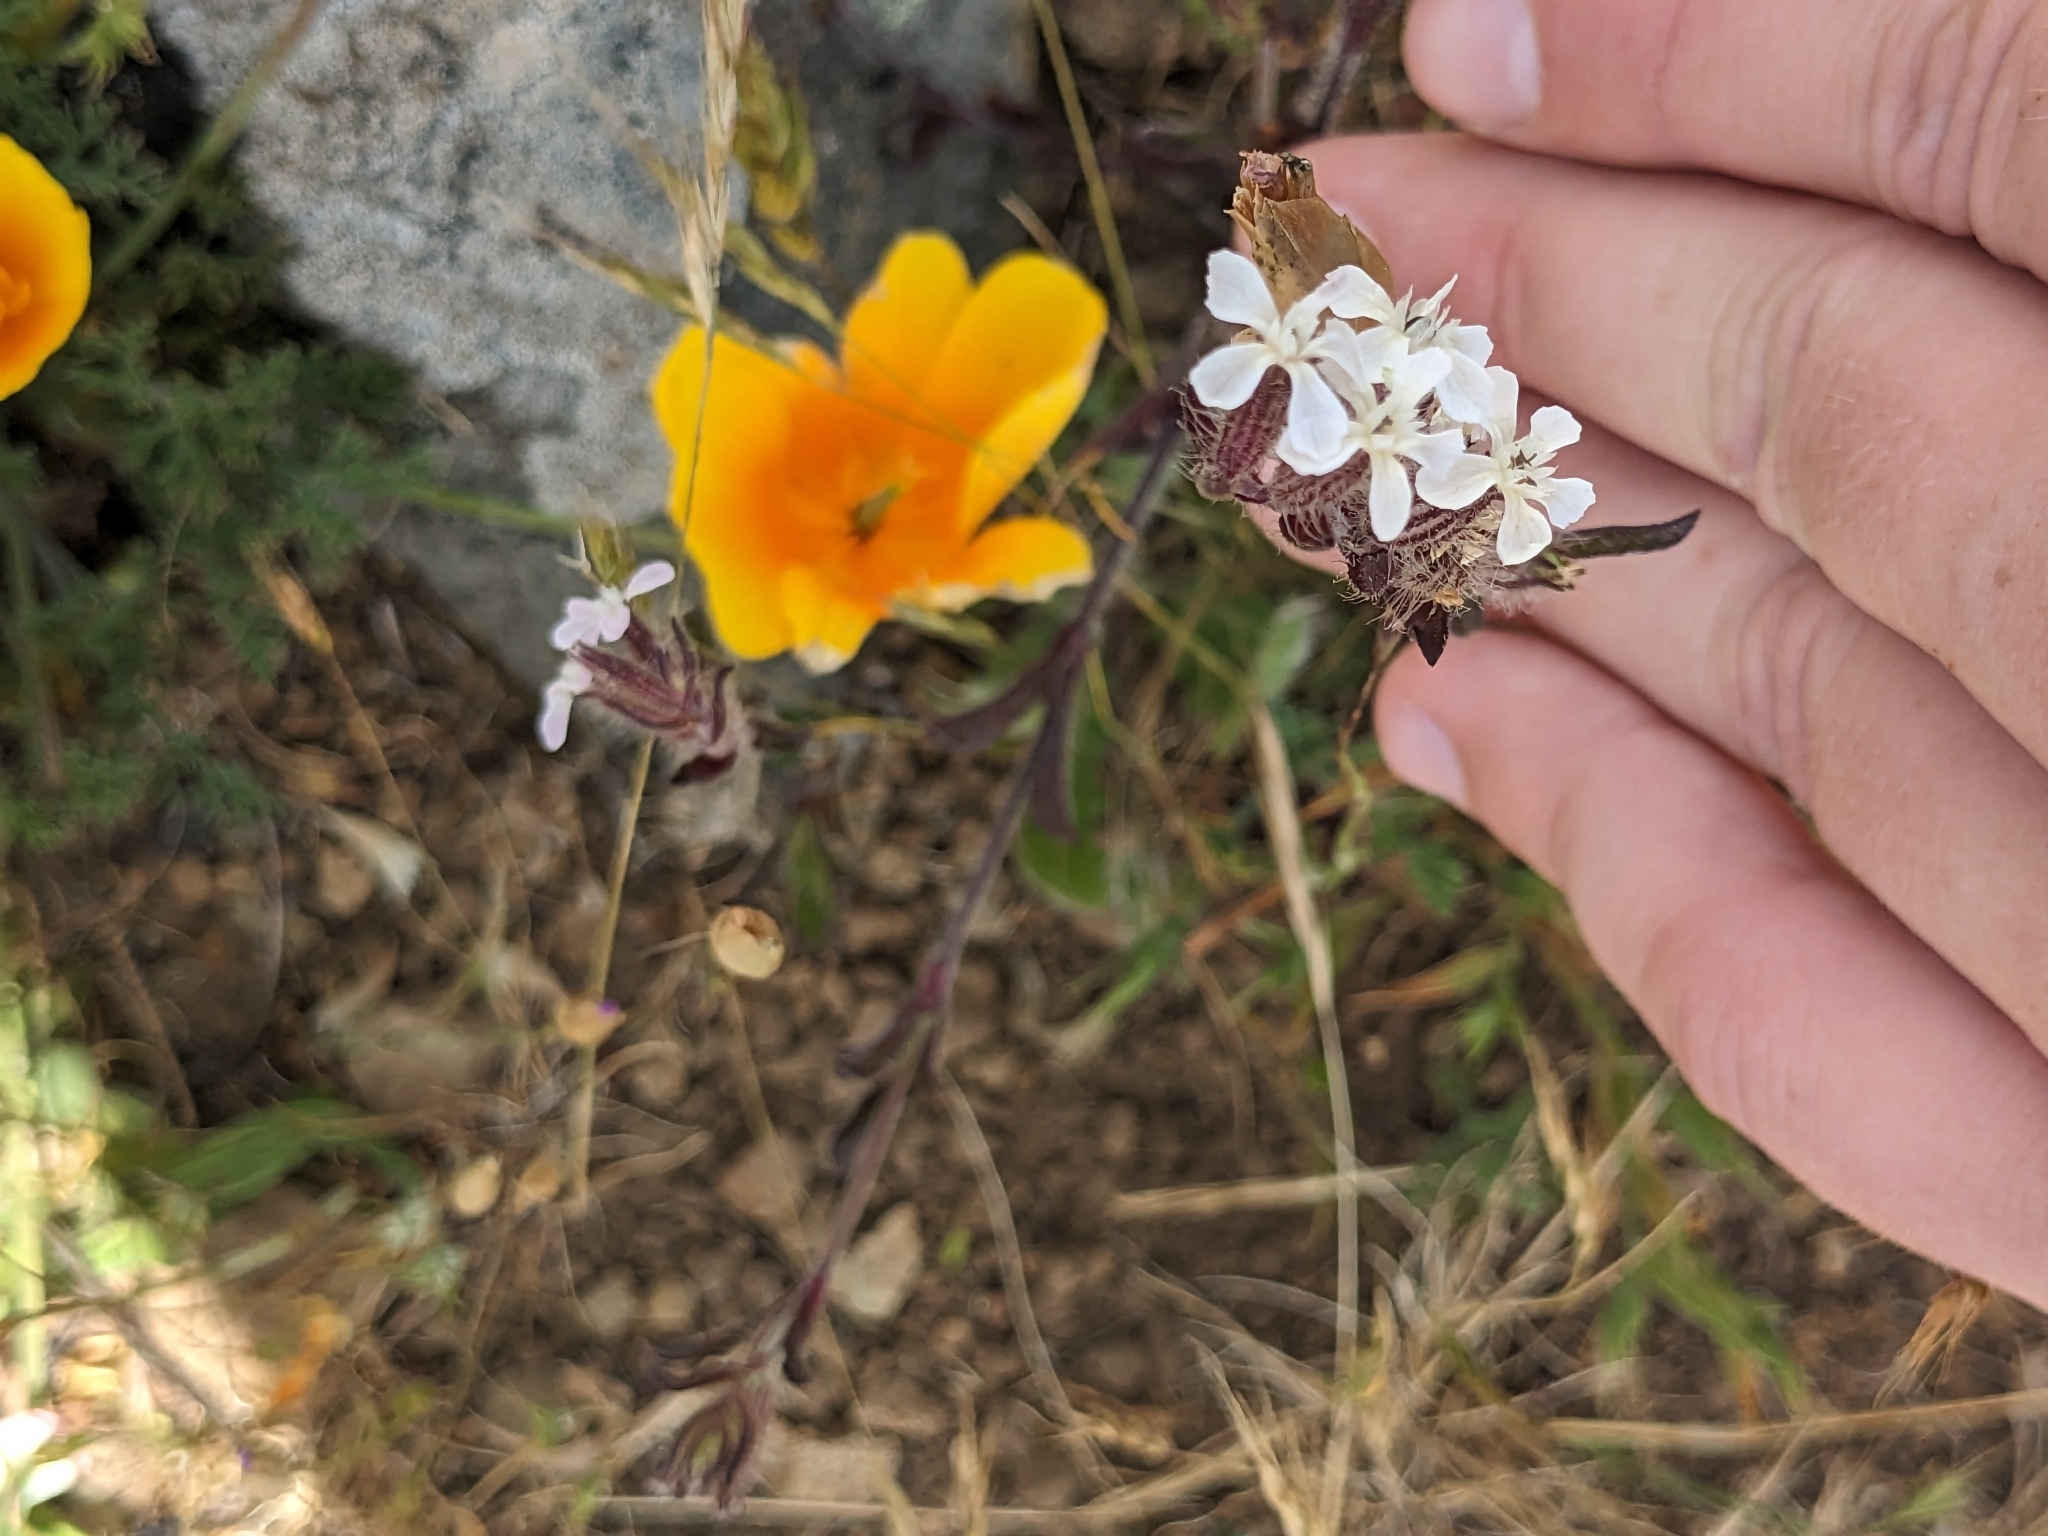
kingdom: Plantae
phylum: Tracheophyta
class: Magnoliopsida
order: Caryophyllales
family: Caryophyllaceae
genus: Silene
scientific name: Silene gallica
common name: Small-flowered catchfly
